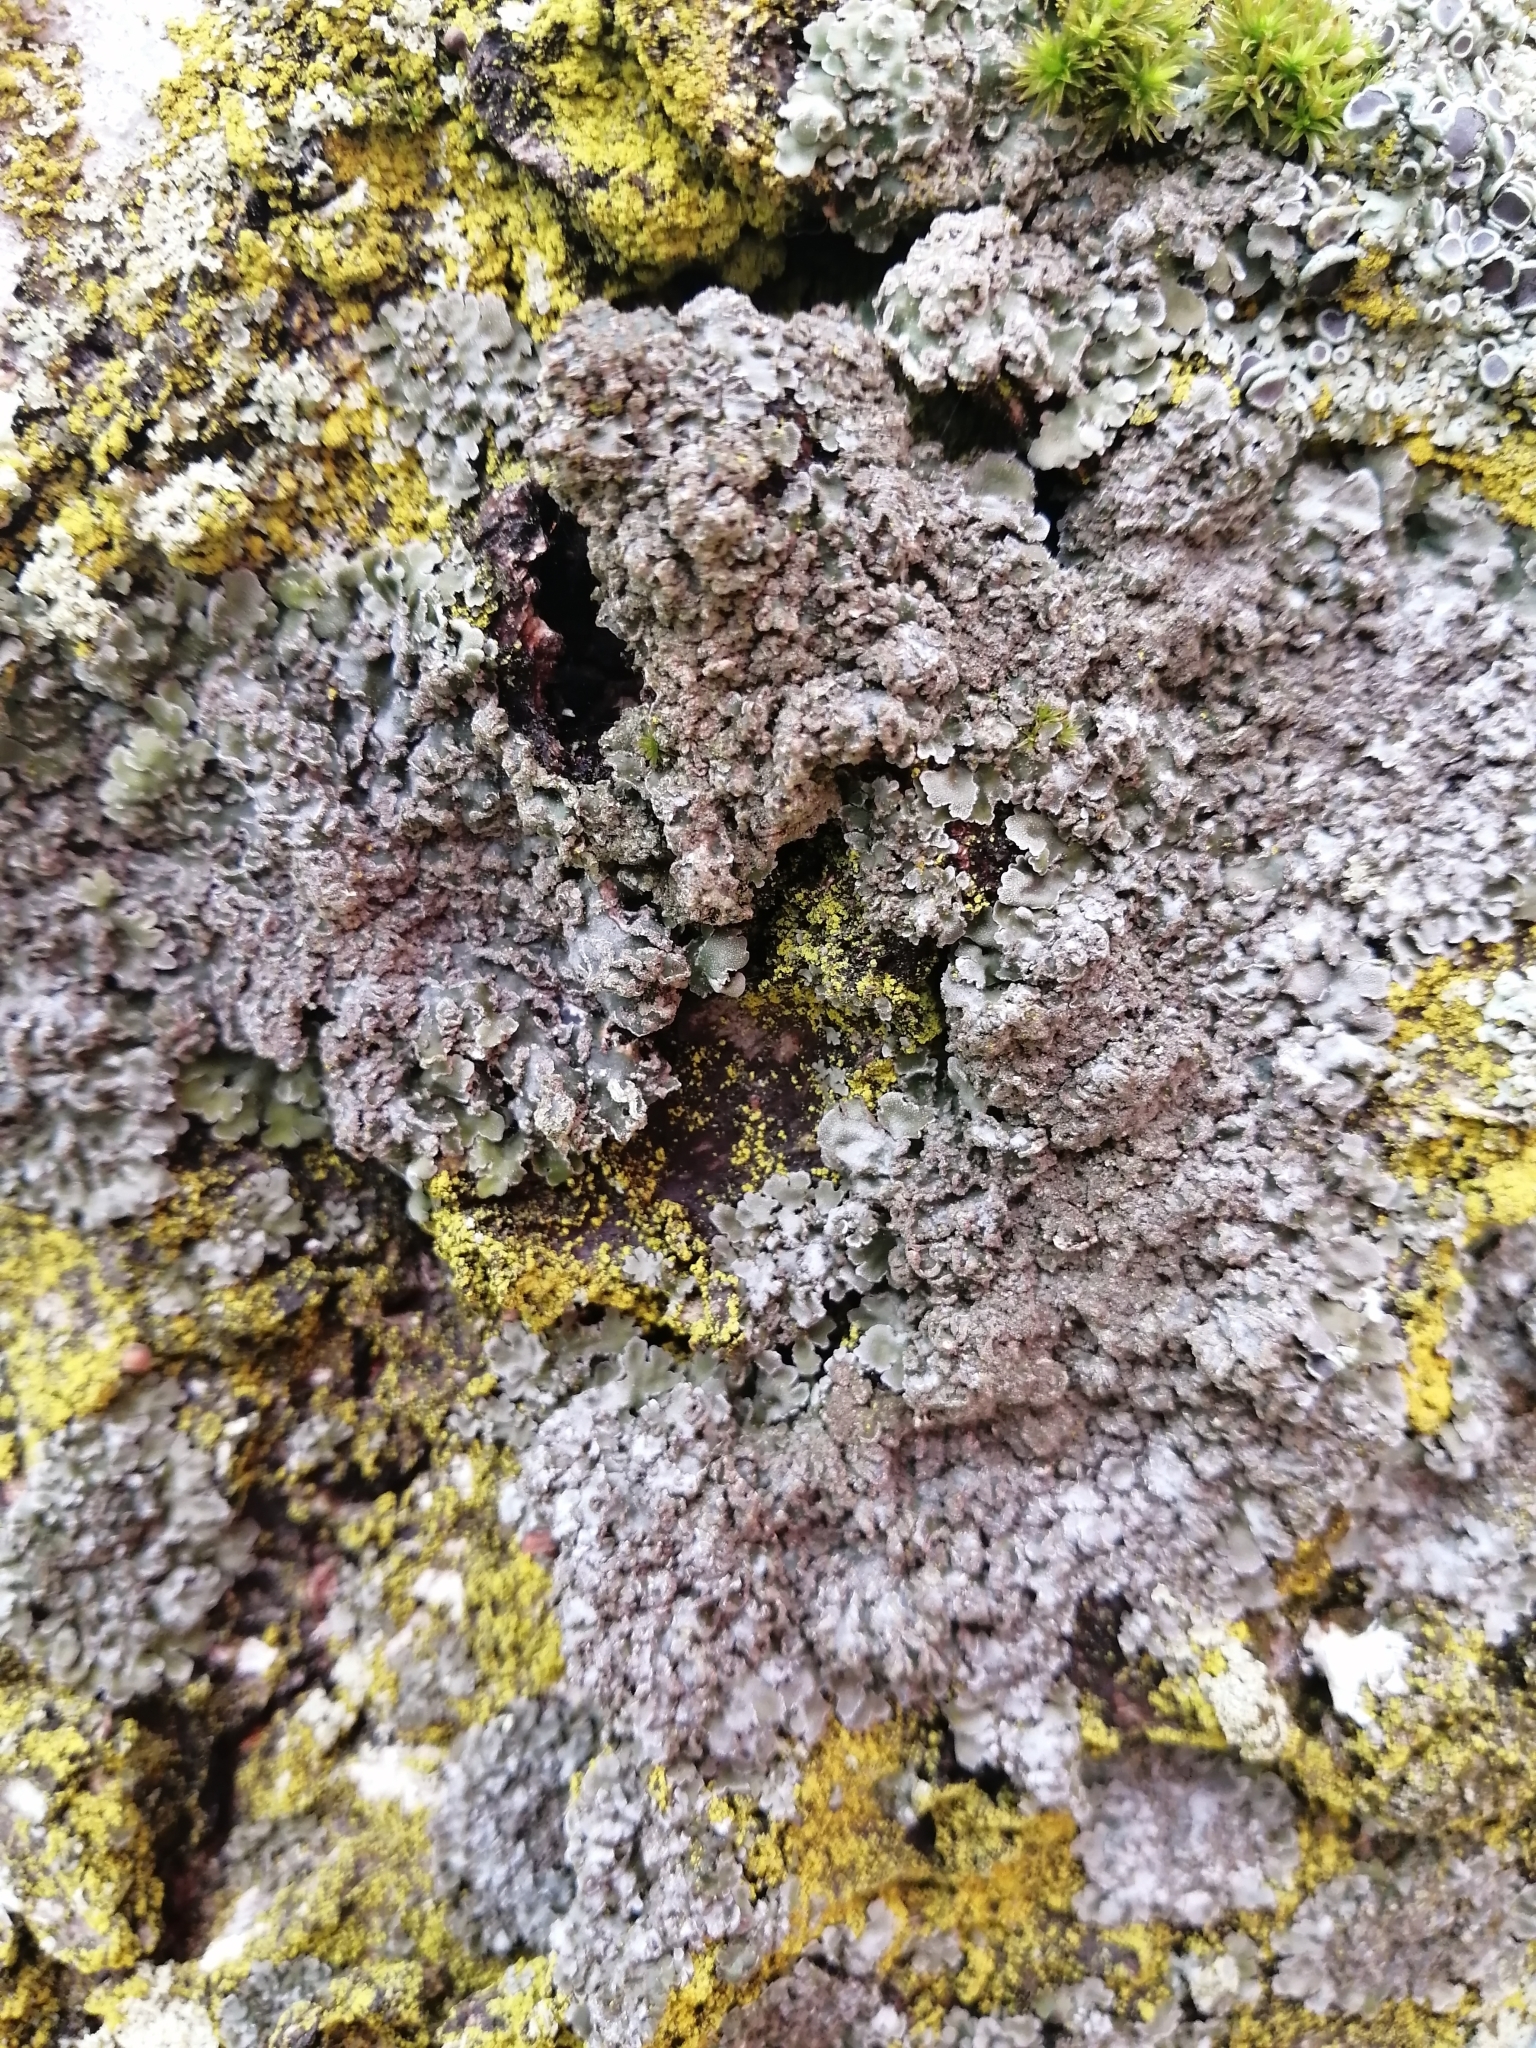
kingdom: Fungi
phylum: Ascomycota
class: Lecanoromycetes
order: Caliciales
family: Physciaceae
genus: Physconia
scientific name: Physconia enteroxantha
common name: Yellow-edged frost lichen
